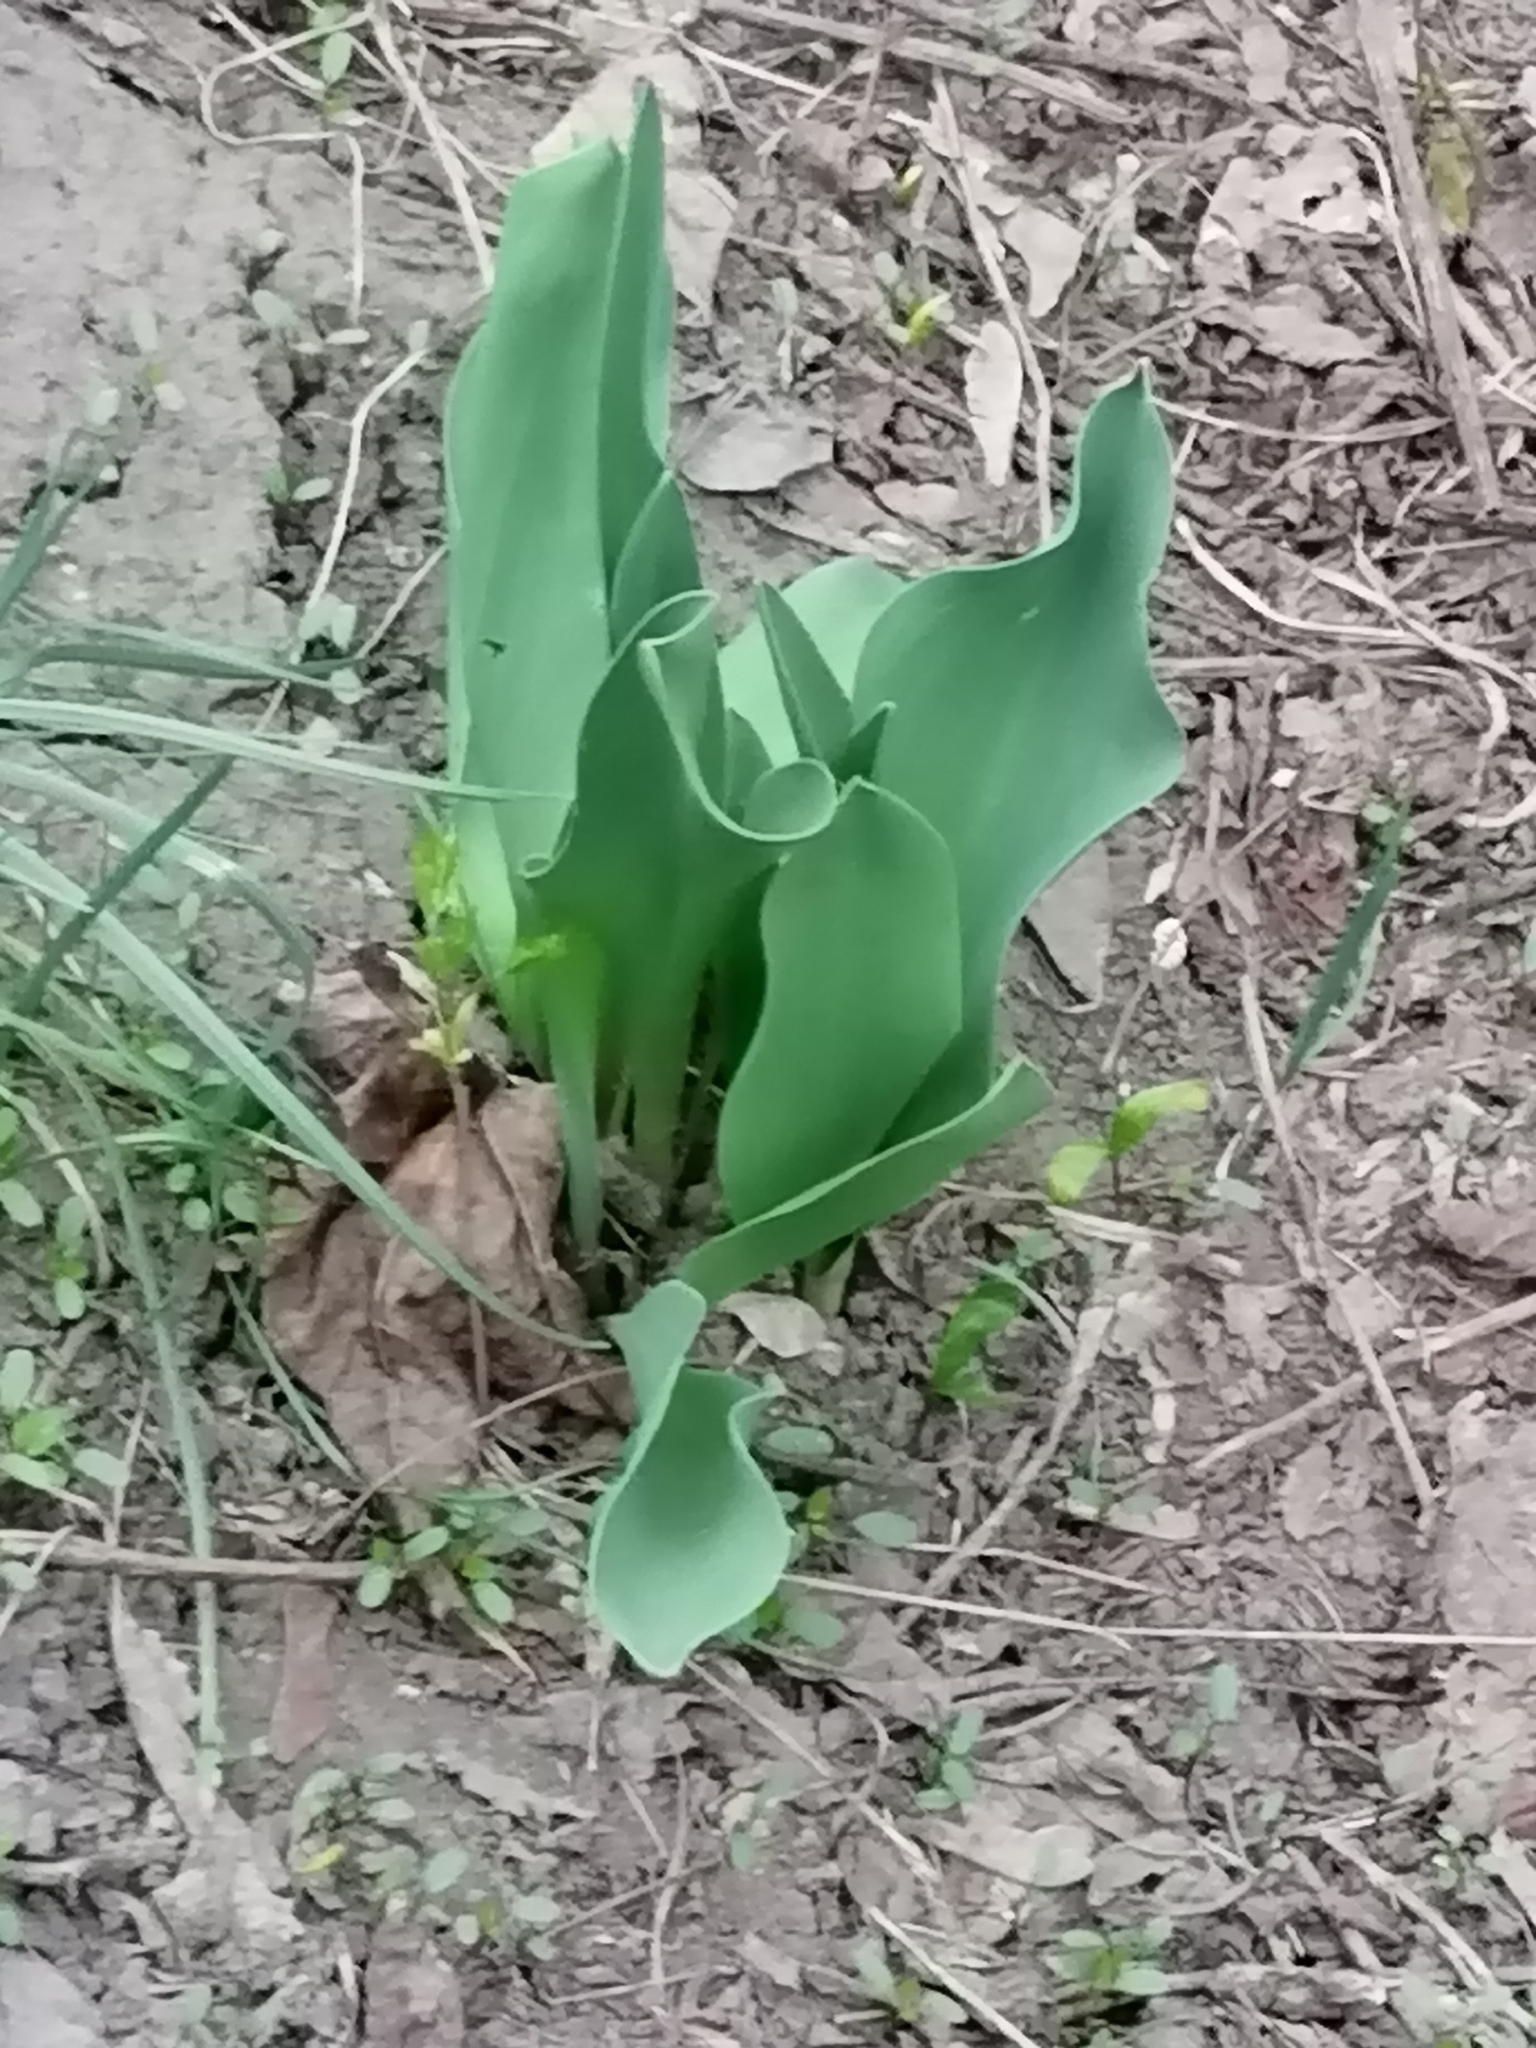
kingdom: Plantae
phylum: Tracheophyta
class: Liliopsida
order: Liliales
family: Liliaceae
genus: Tulipa
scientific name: Tulipa gesneriana
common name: Garden tulip
